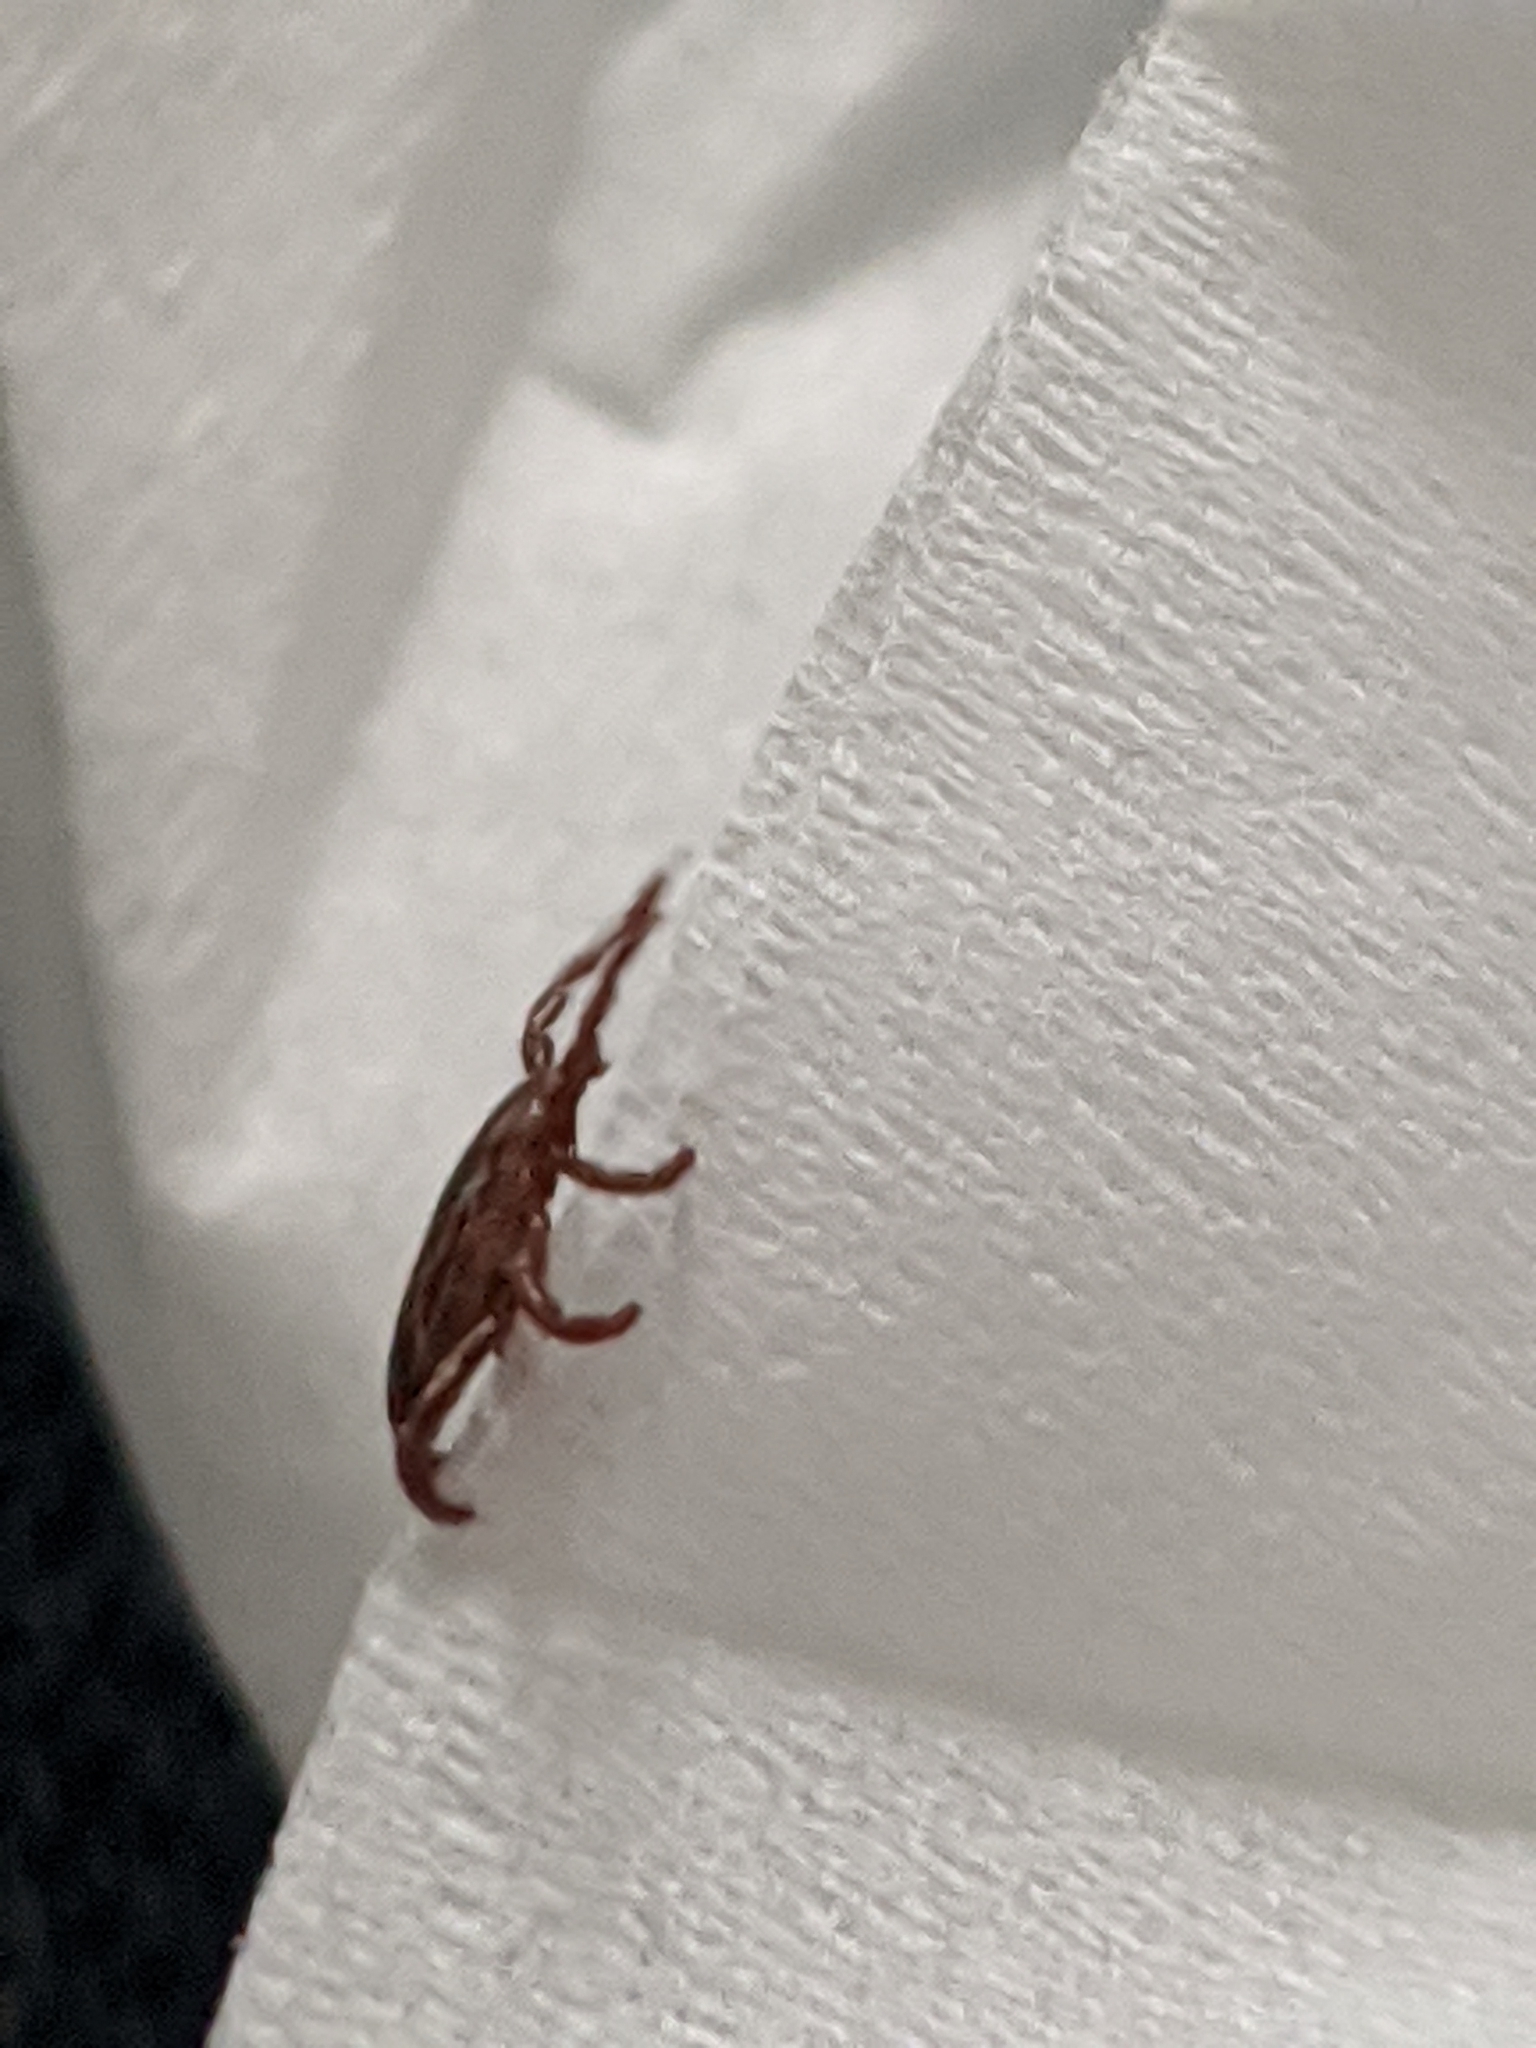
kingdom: Animalia
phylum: Arthropoda
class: Arachnida
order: Ixodida
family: Ixodidae
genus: Dermacentor
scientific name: Dermacentor variabilis
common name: American dog tick
